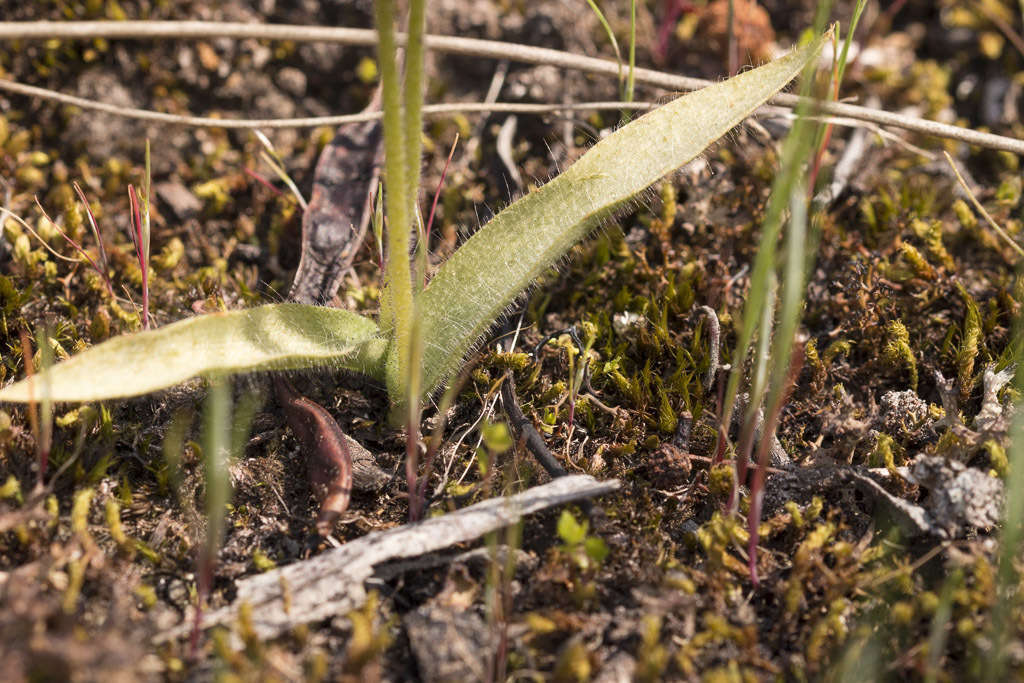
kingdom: Plantae
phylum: Tracheophyta
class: Liliopsida
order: Asparagales
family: Orchidaceae
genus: Caladenia
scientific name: Caladenia major
